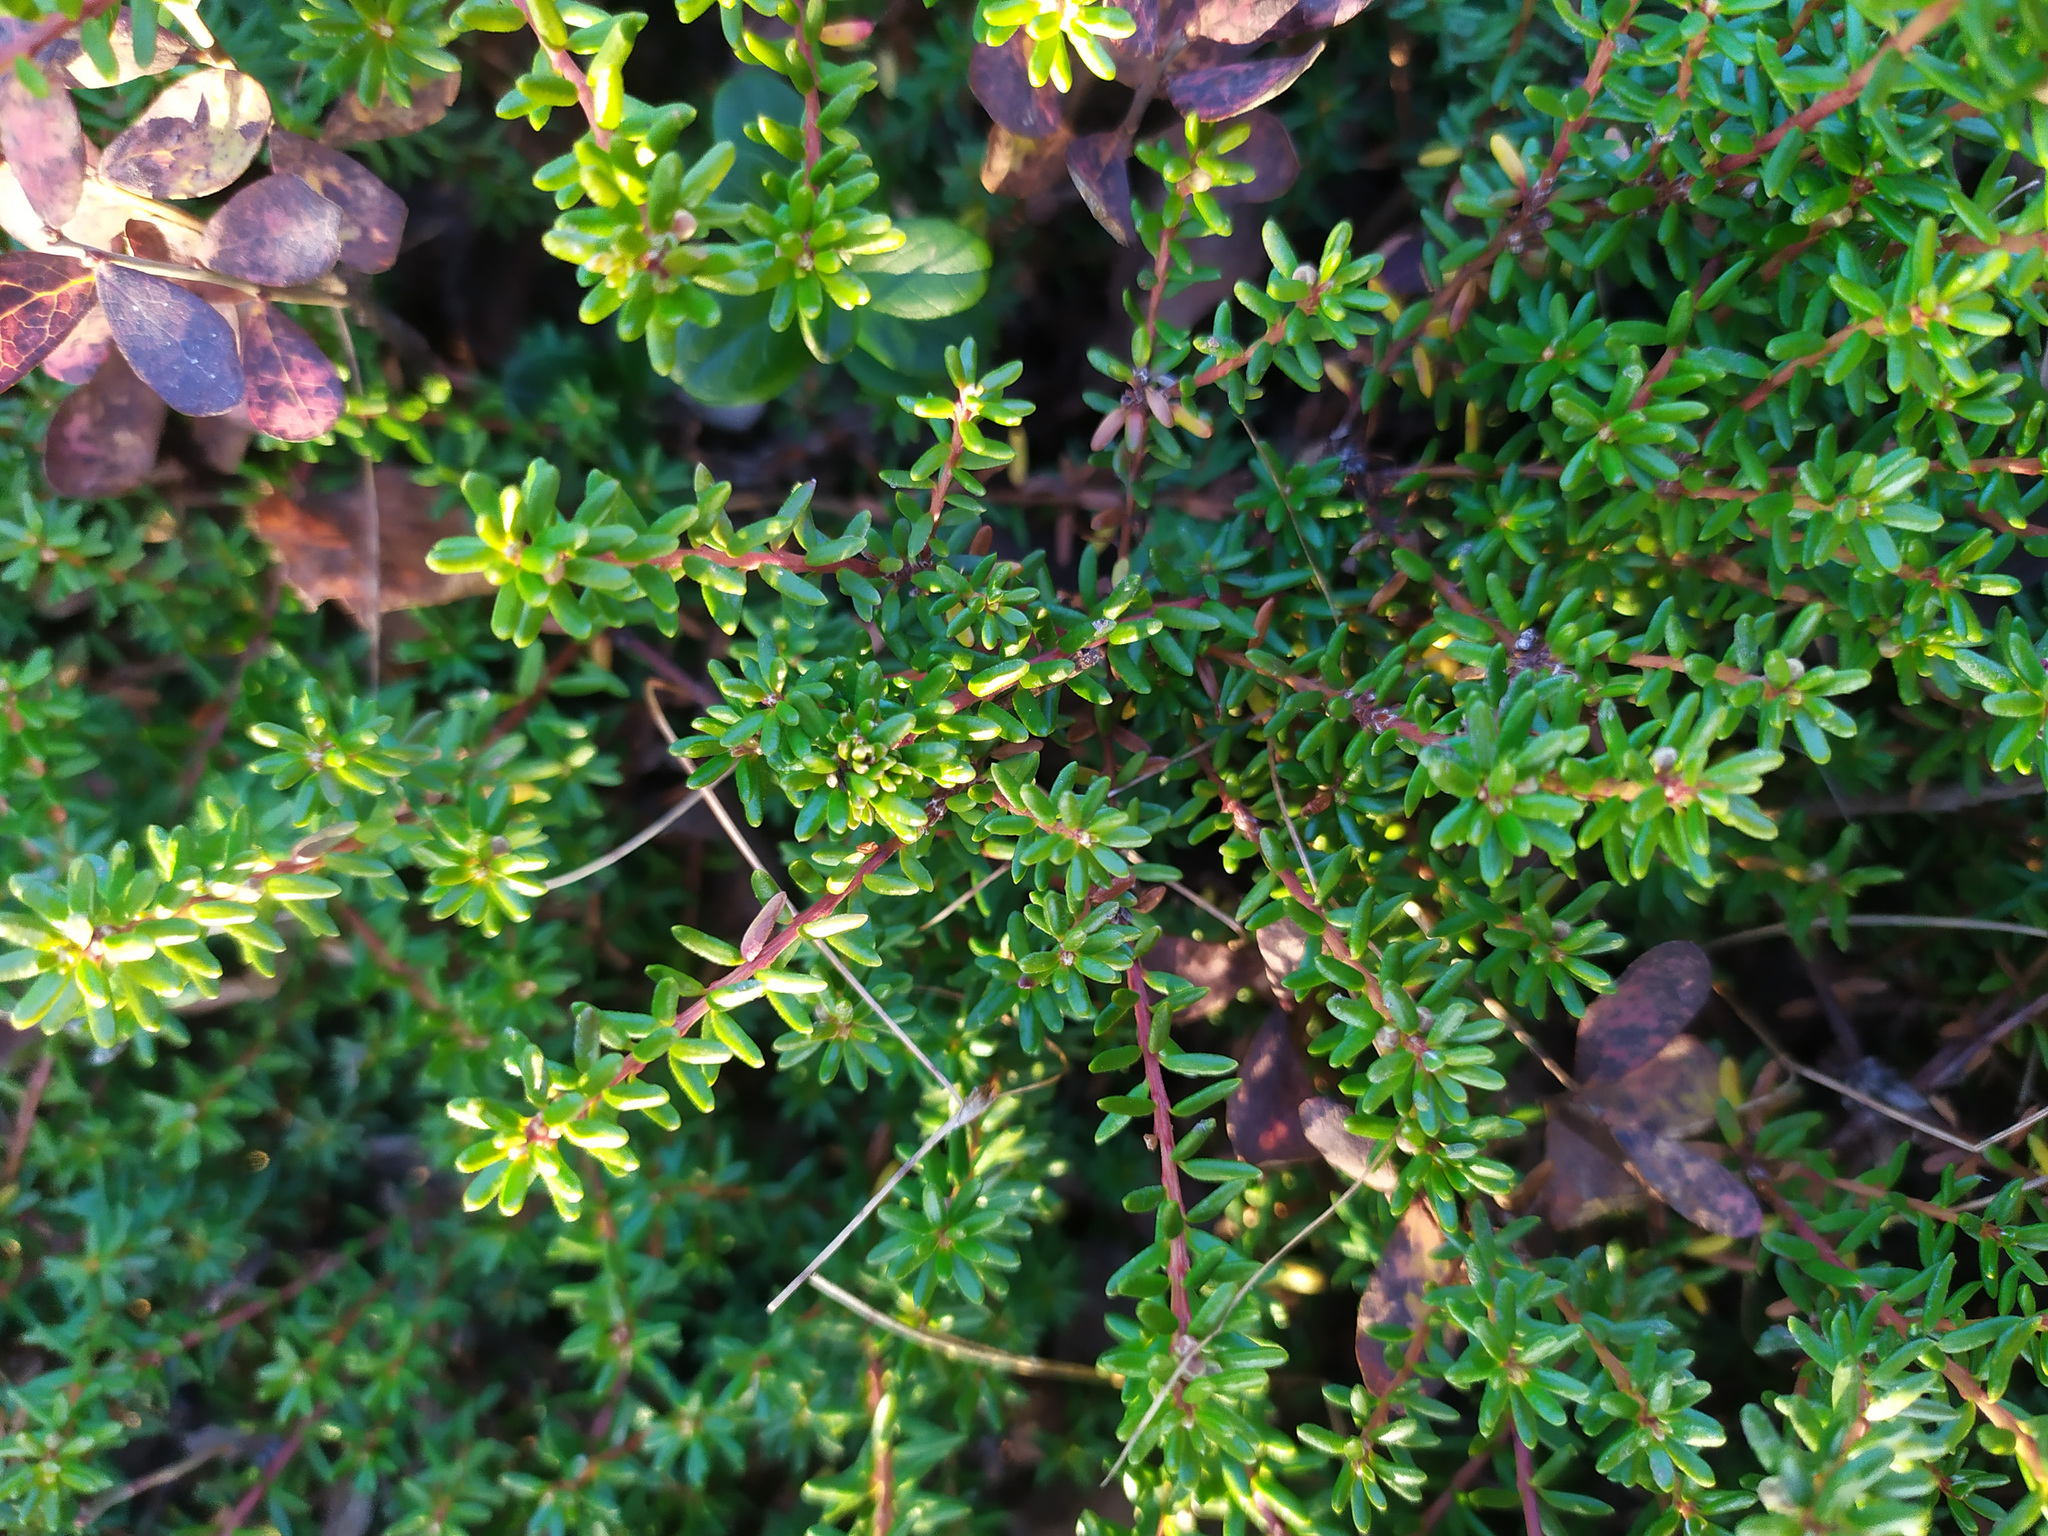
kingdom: Plantae
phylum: Tracheophyta
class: Magnoliopsida
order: Ericales
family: Ericaceae
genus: Empetrum
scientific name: Empetrum nigrum
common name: Black crowberry
